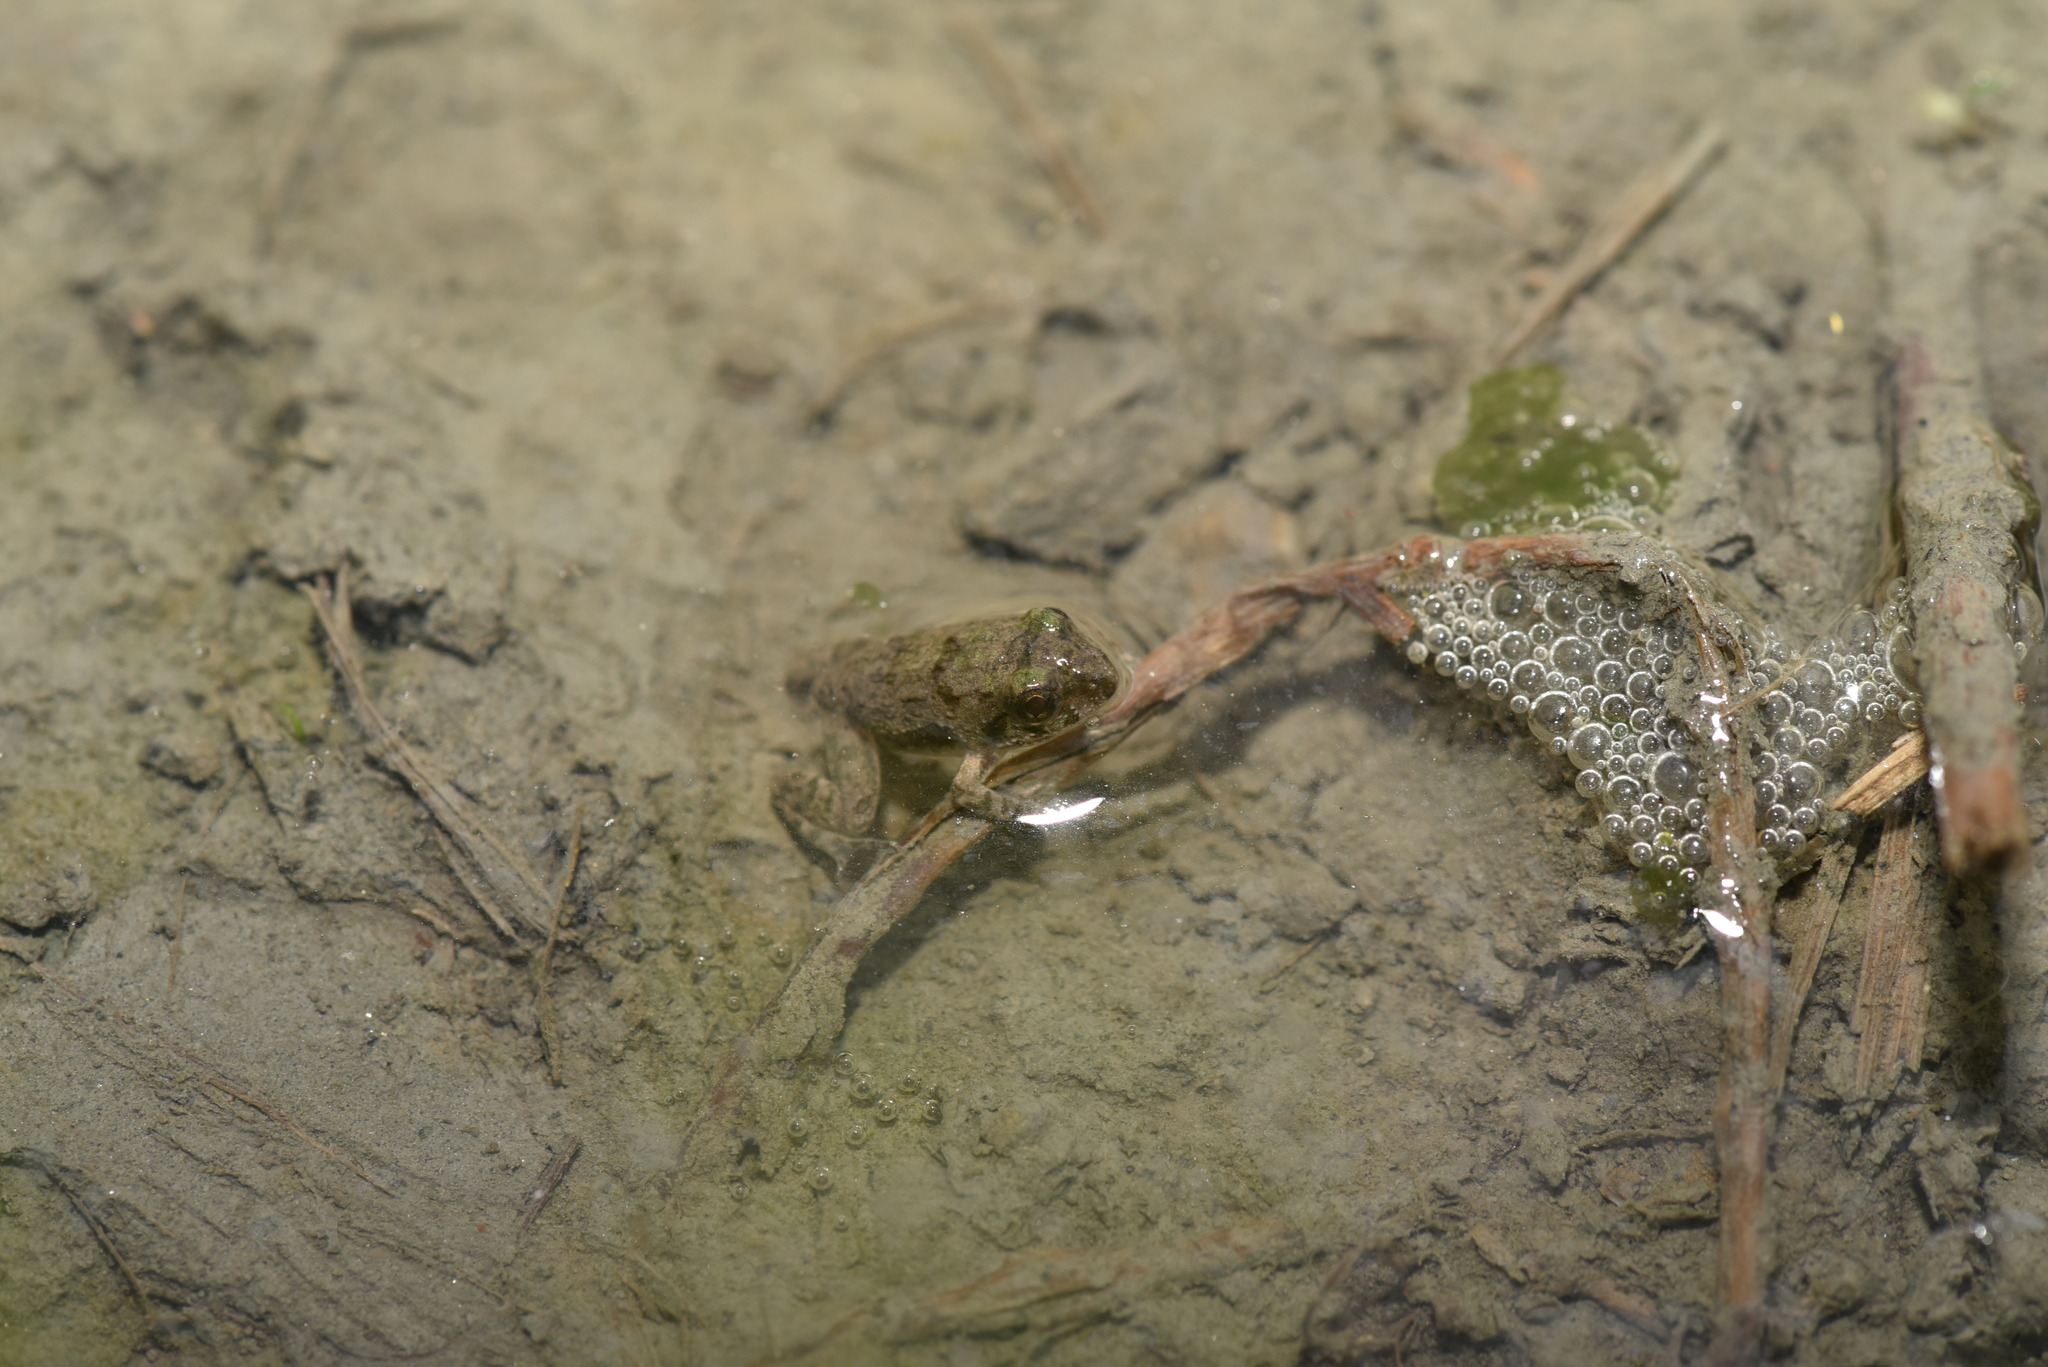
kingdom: Animalia
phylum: Chordata
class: Amphibia
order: Anura
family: Dicroglossidae
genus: Fejervarya
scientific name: Fejervarya limnocharis
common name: Asian grass frog/common pond frog/field frog/grass frog/indian rice frog
